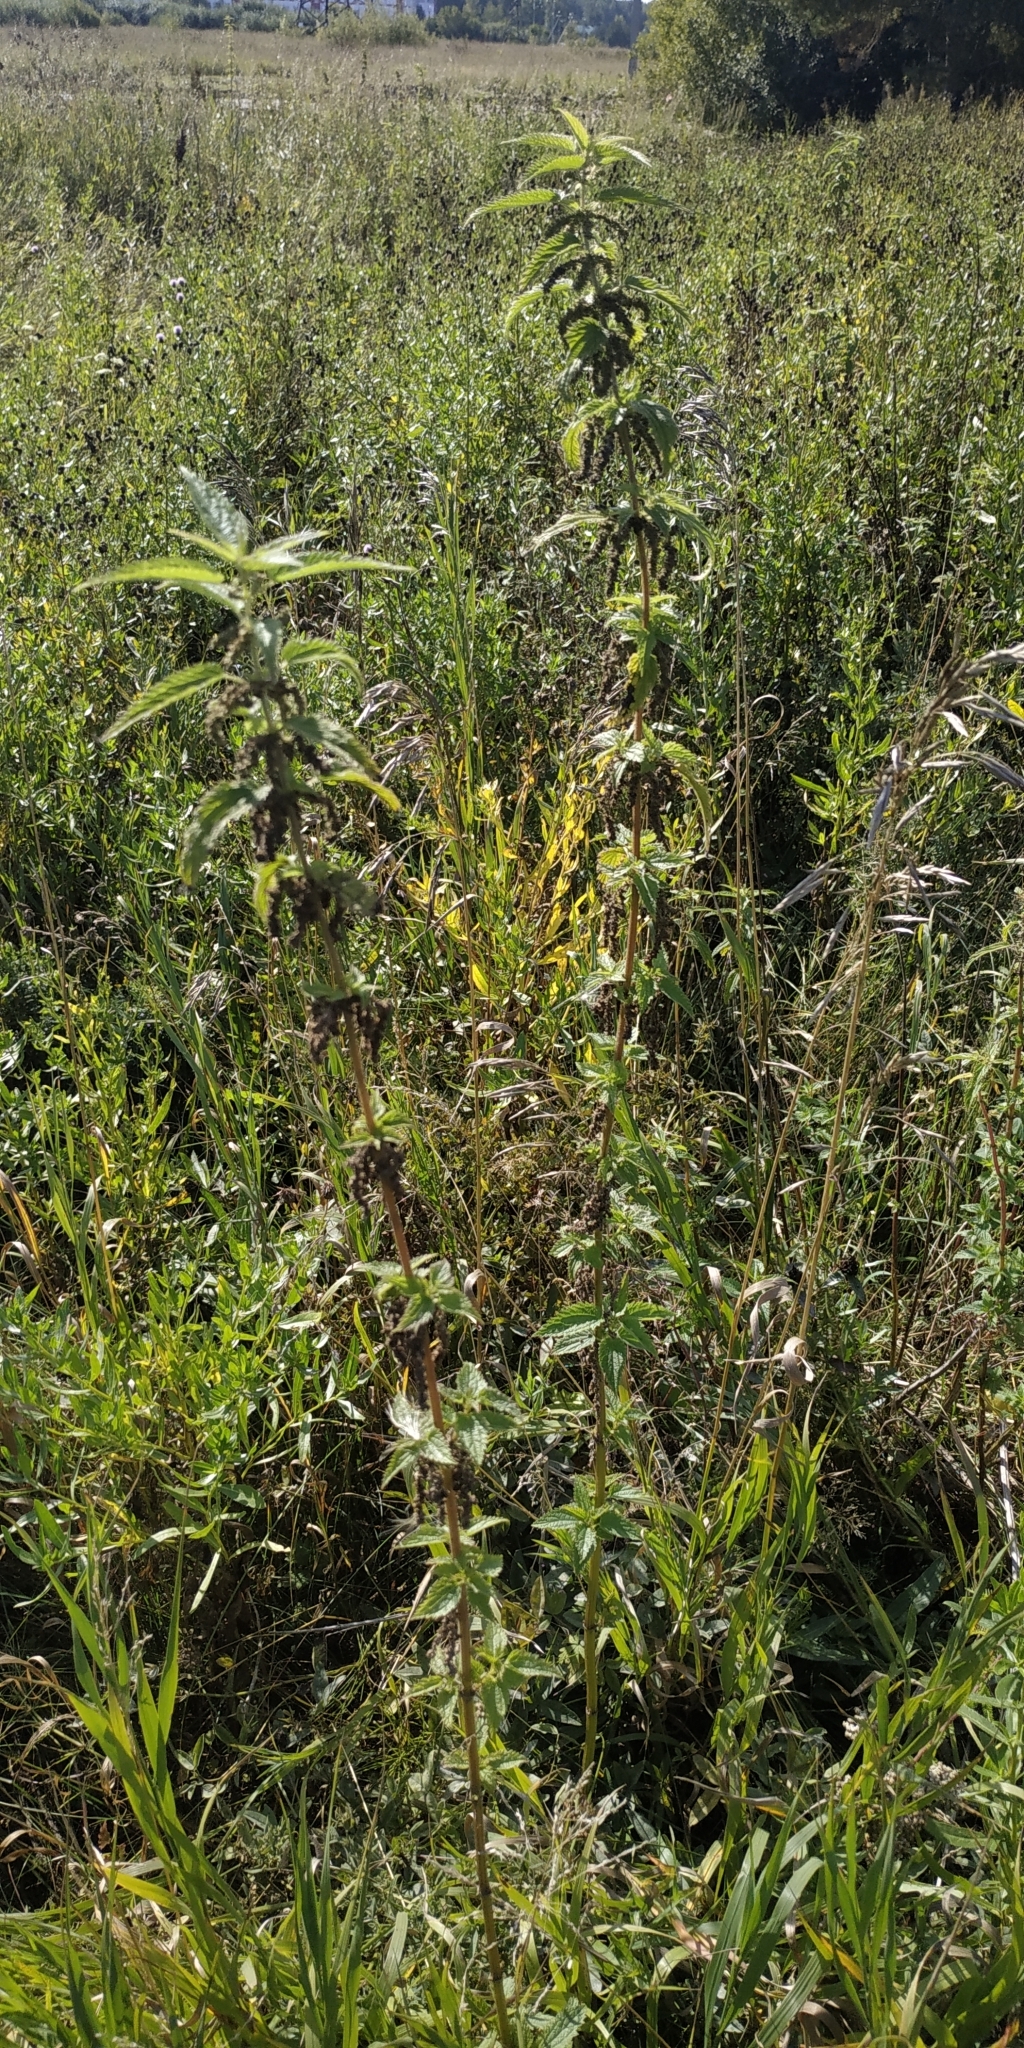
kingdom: Plantae
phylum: Tracheophyta
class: Magnoliopsida
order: Rosales
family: Urticaceae
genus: Urtica
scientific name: Urtica dioica
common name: Common nettle
